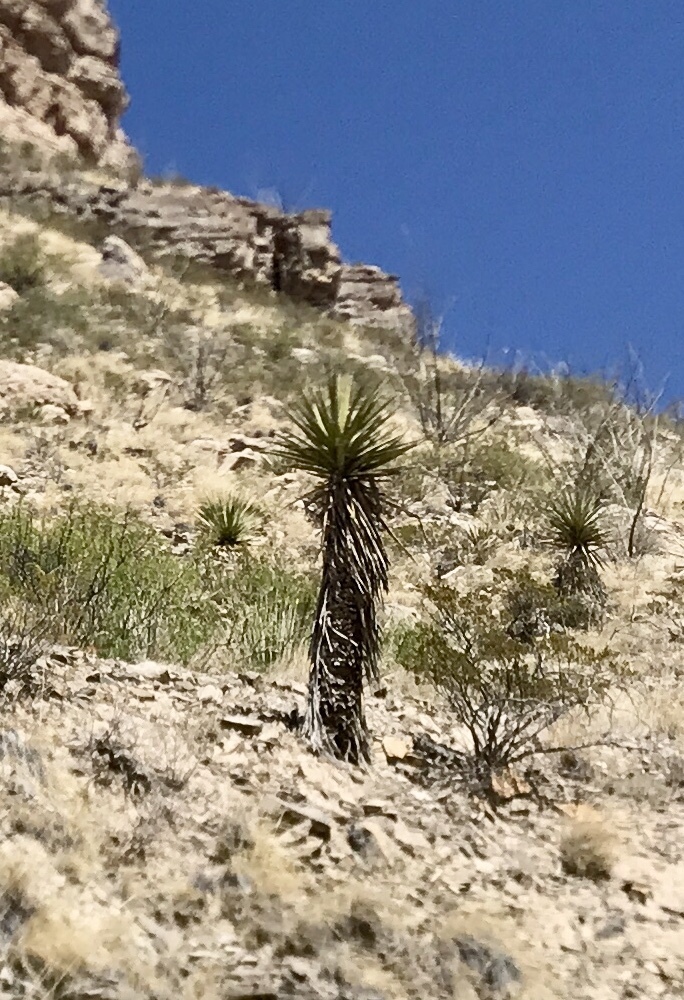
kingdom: Plantae
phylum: Tracheophyta
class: Liliopsida
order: Asparagales
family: Asparagaceae
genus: Yucca
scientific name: Yucca treculiana
